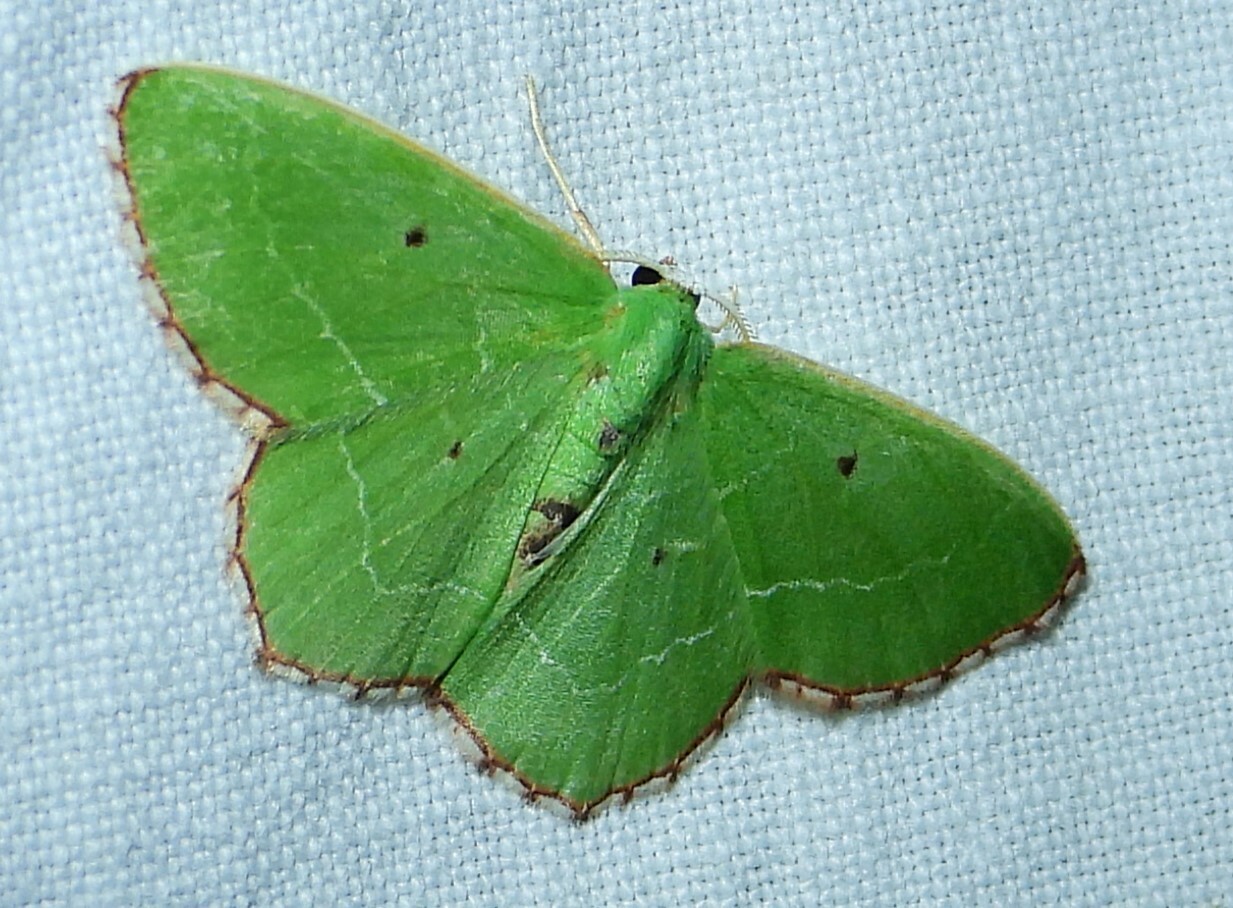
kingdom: Animalia
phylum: Arthropoda
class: Insecta
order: Lepidoptera
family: Geometridae
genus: Nemoria
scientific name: Nemoria saturiba
